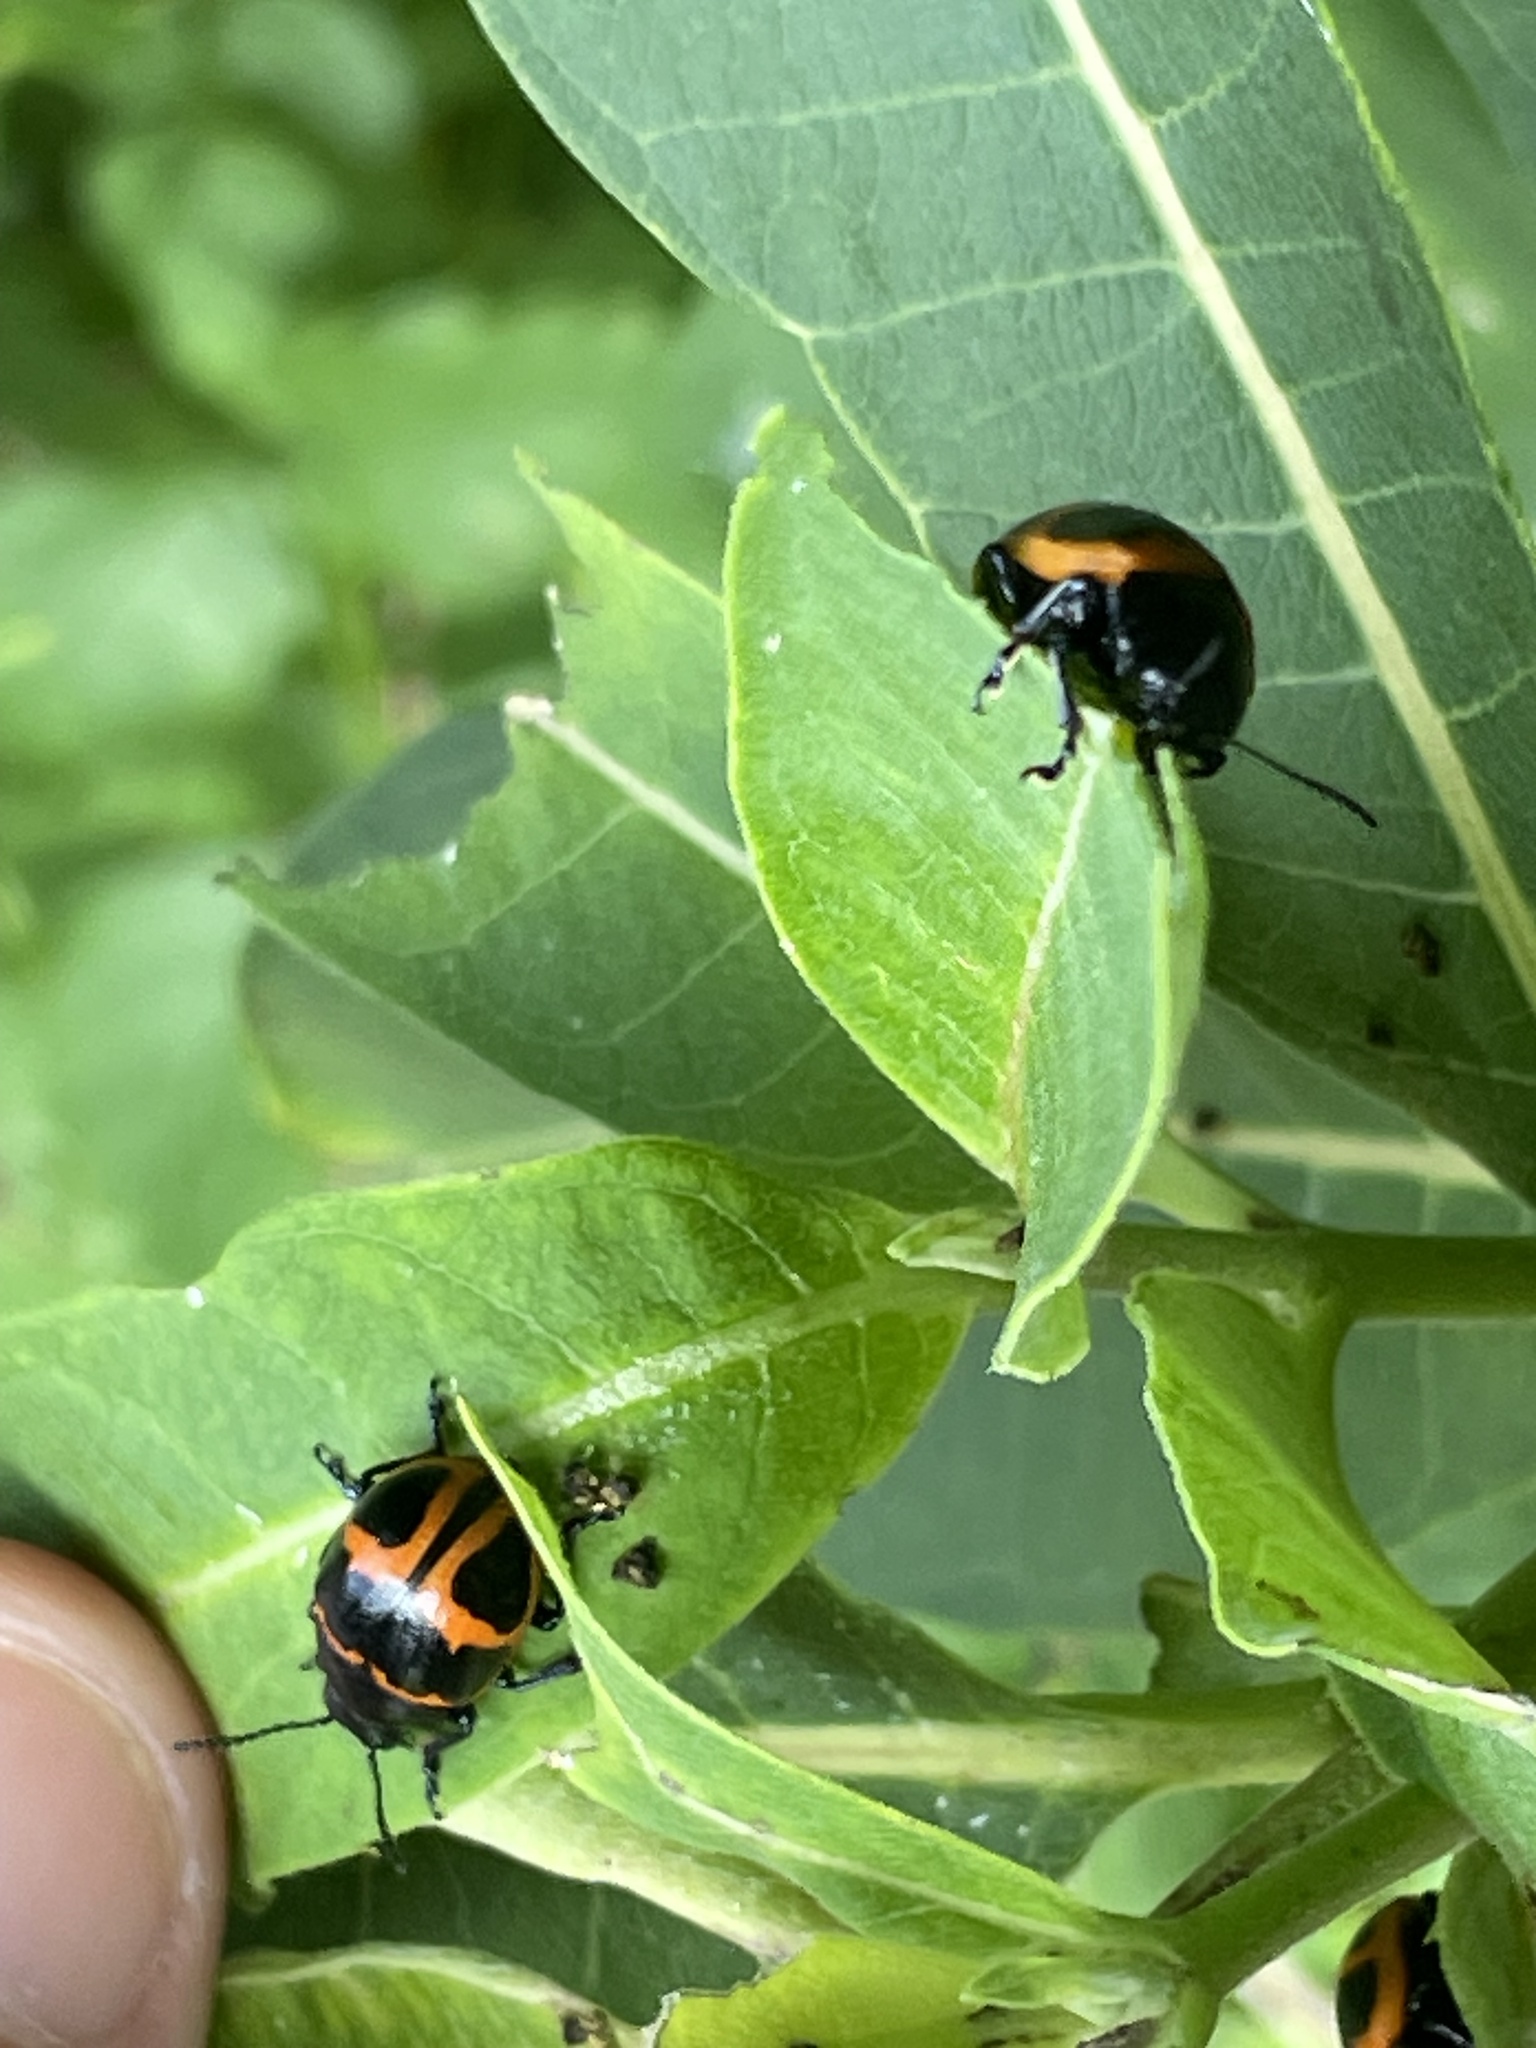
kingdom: Animalia
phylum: Arthropoda
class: Insecta
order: Coleoptera
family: Chrysomelidae
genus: Labidomera
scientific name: Labidomera clivicollis
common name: Swamp milkweed leaf beetle
